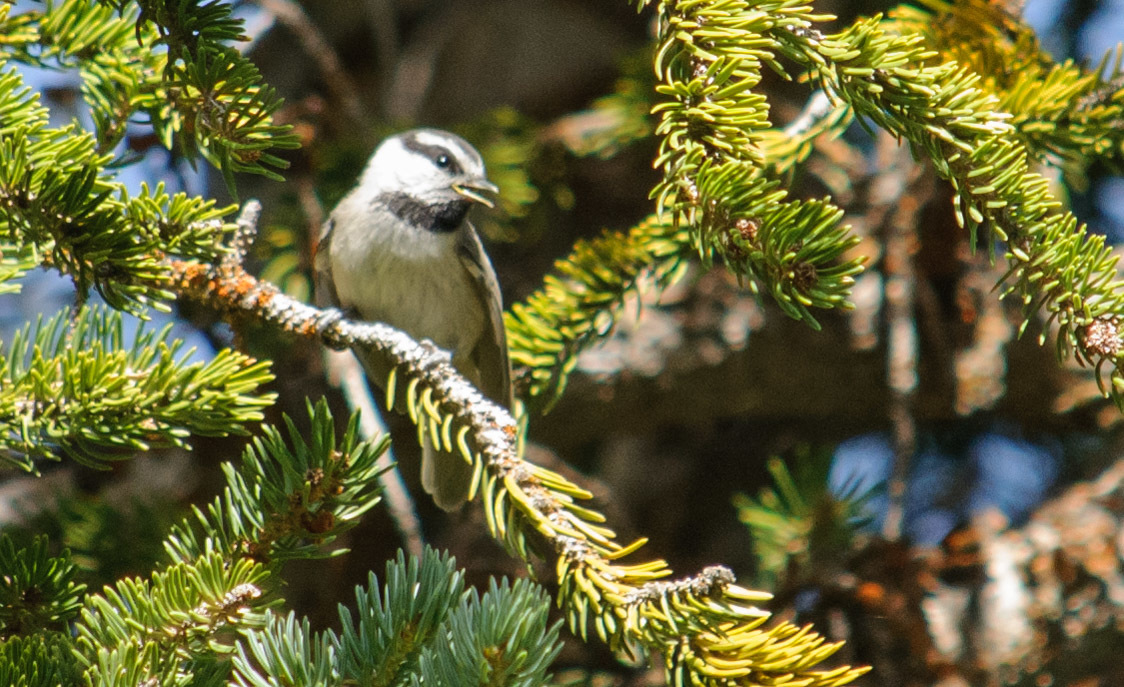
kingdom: Animalia
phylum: Chordata
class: Aves
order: Passeriformes
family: Paridae
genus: Poecile
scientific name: Poecile gambeli
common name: Mountain chickadee
